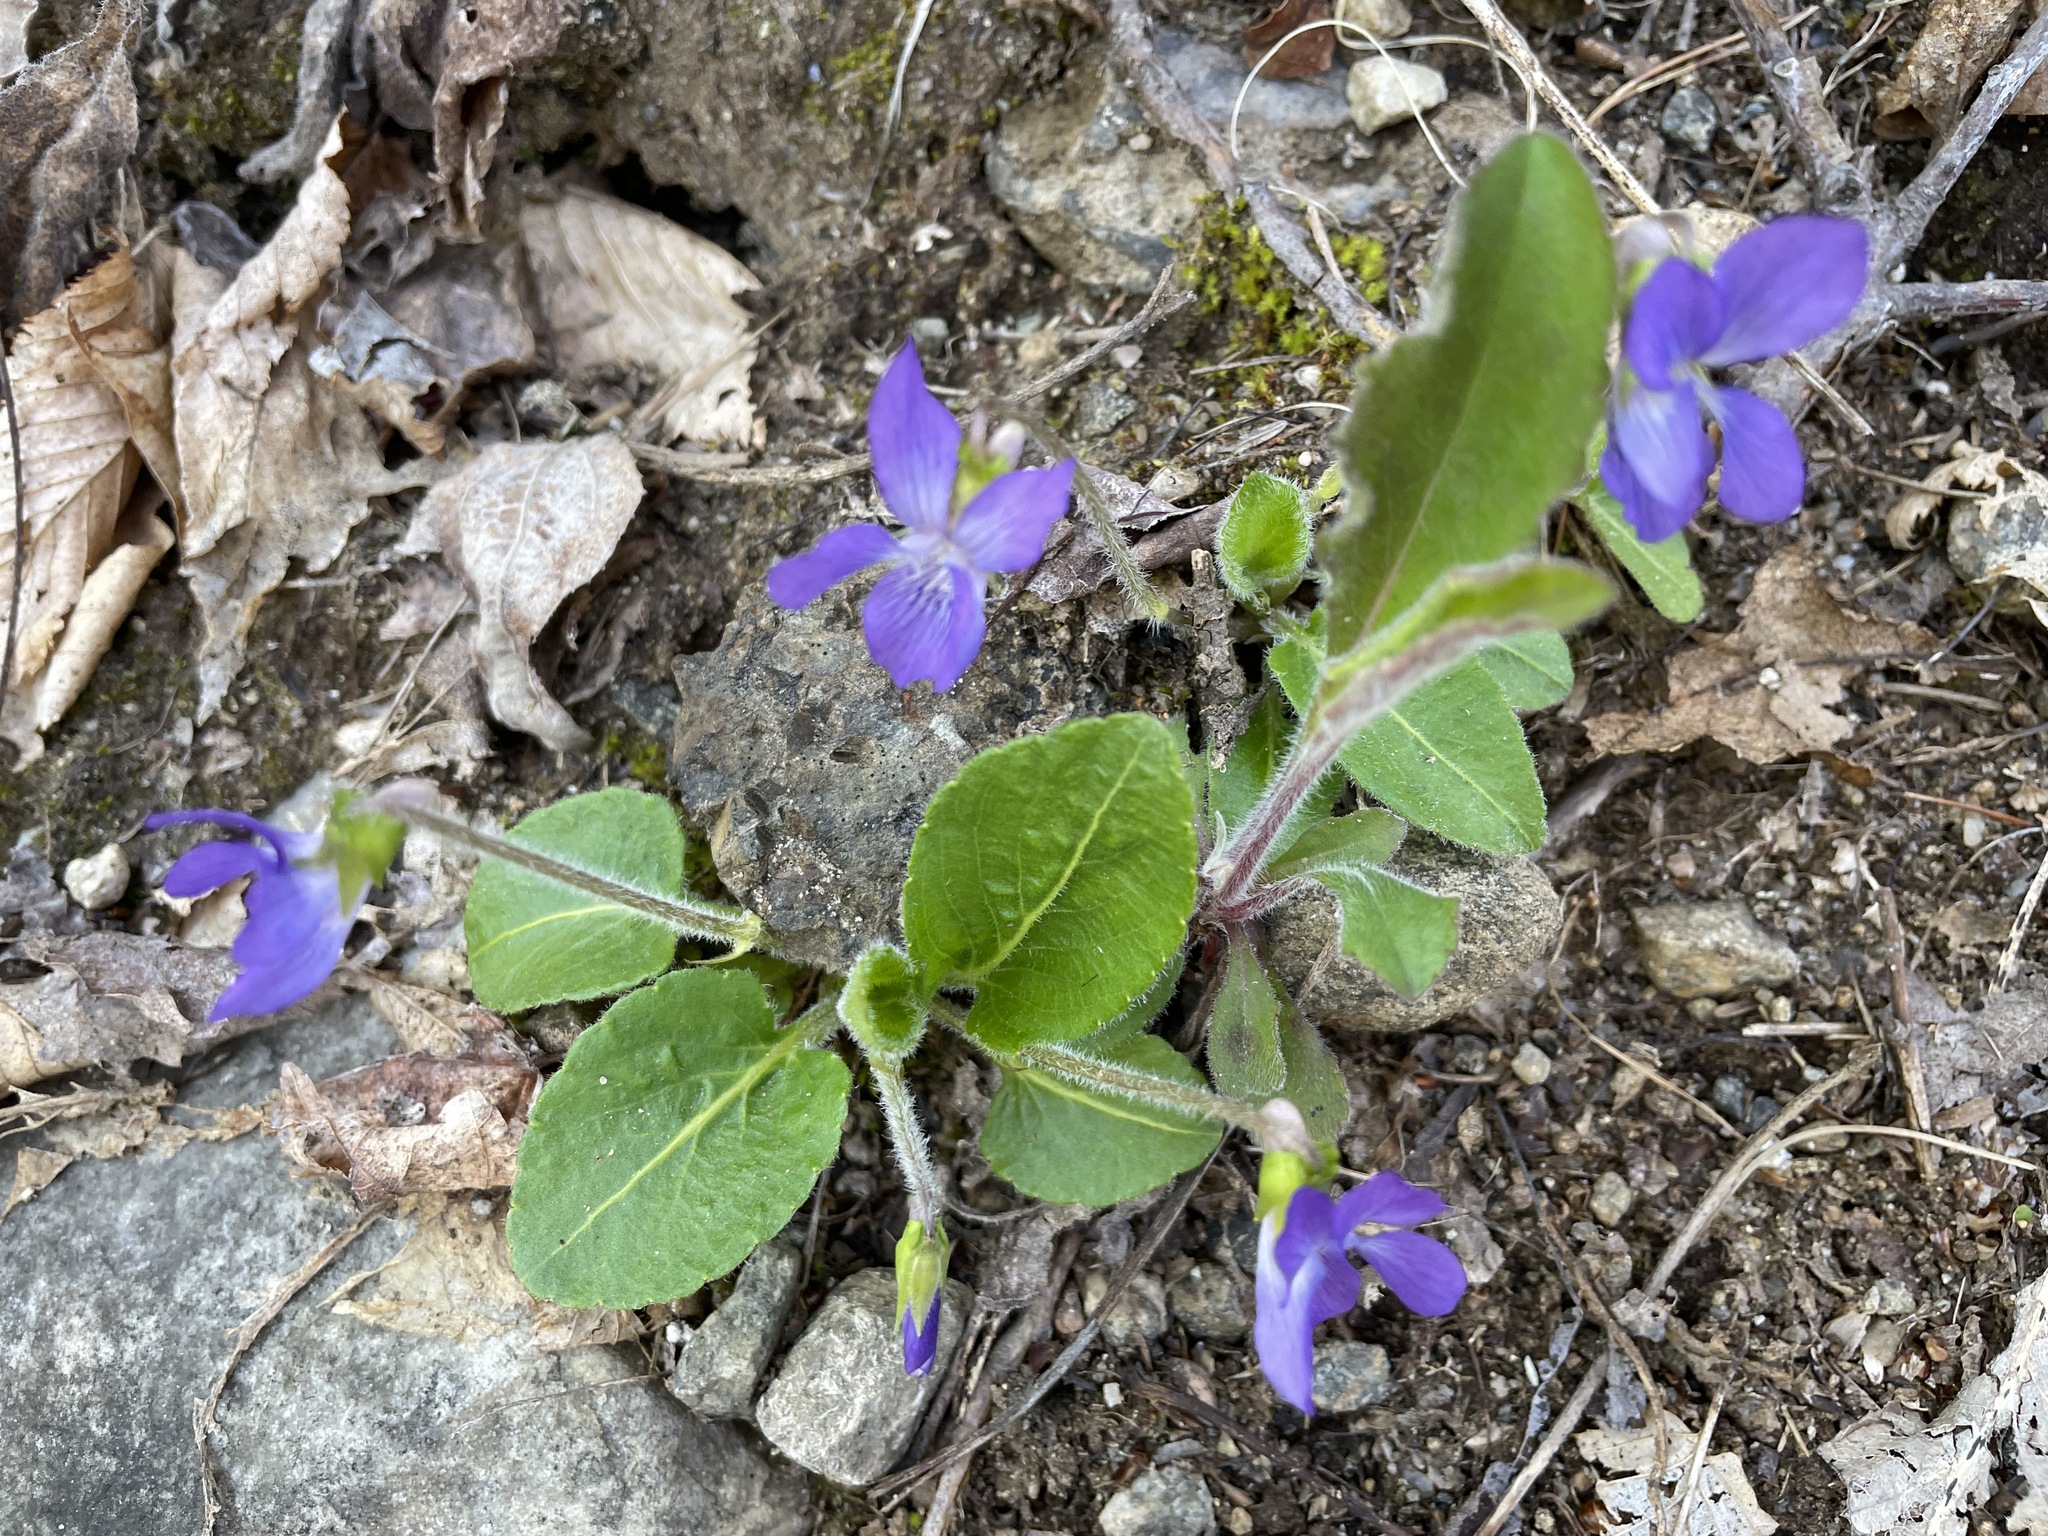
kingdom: Plantae
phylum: Tracheophyta
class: Magnoliopsida
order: Malpighiales
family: Violaceae
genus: Viola
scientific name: Viola fimbriatula
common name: Sand violet
